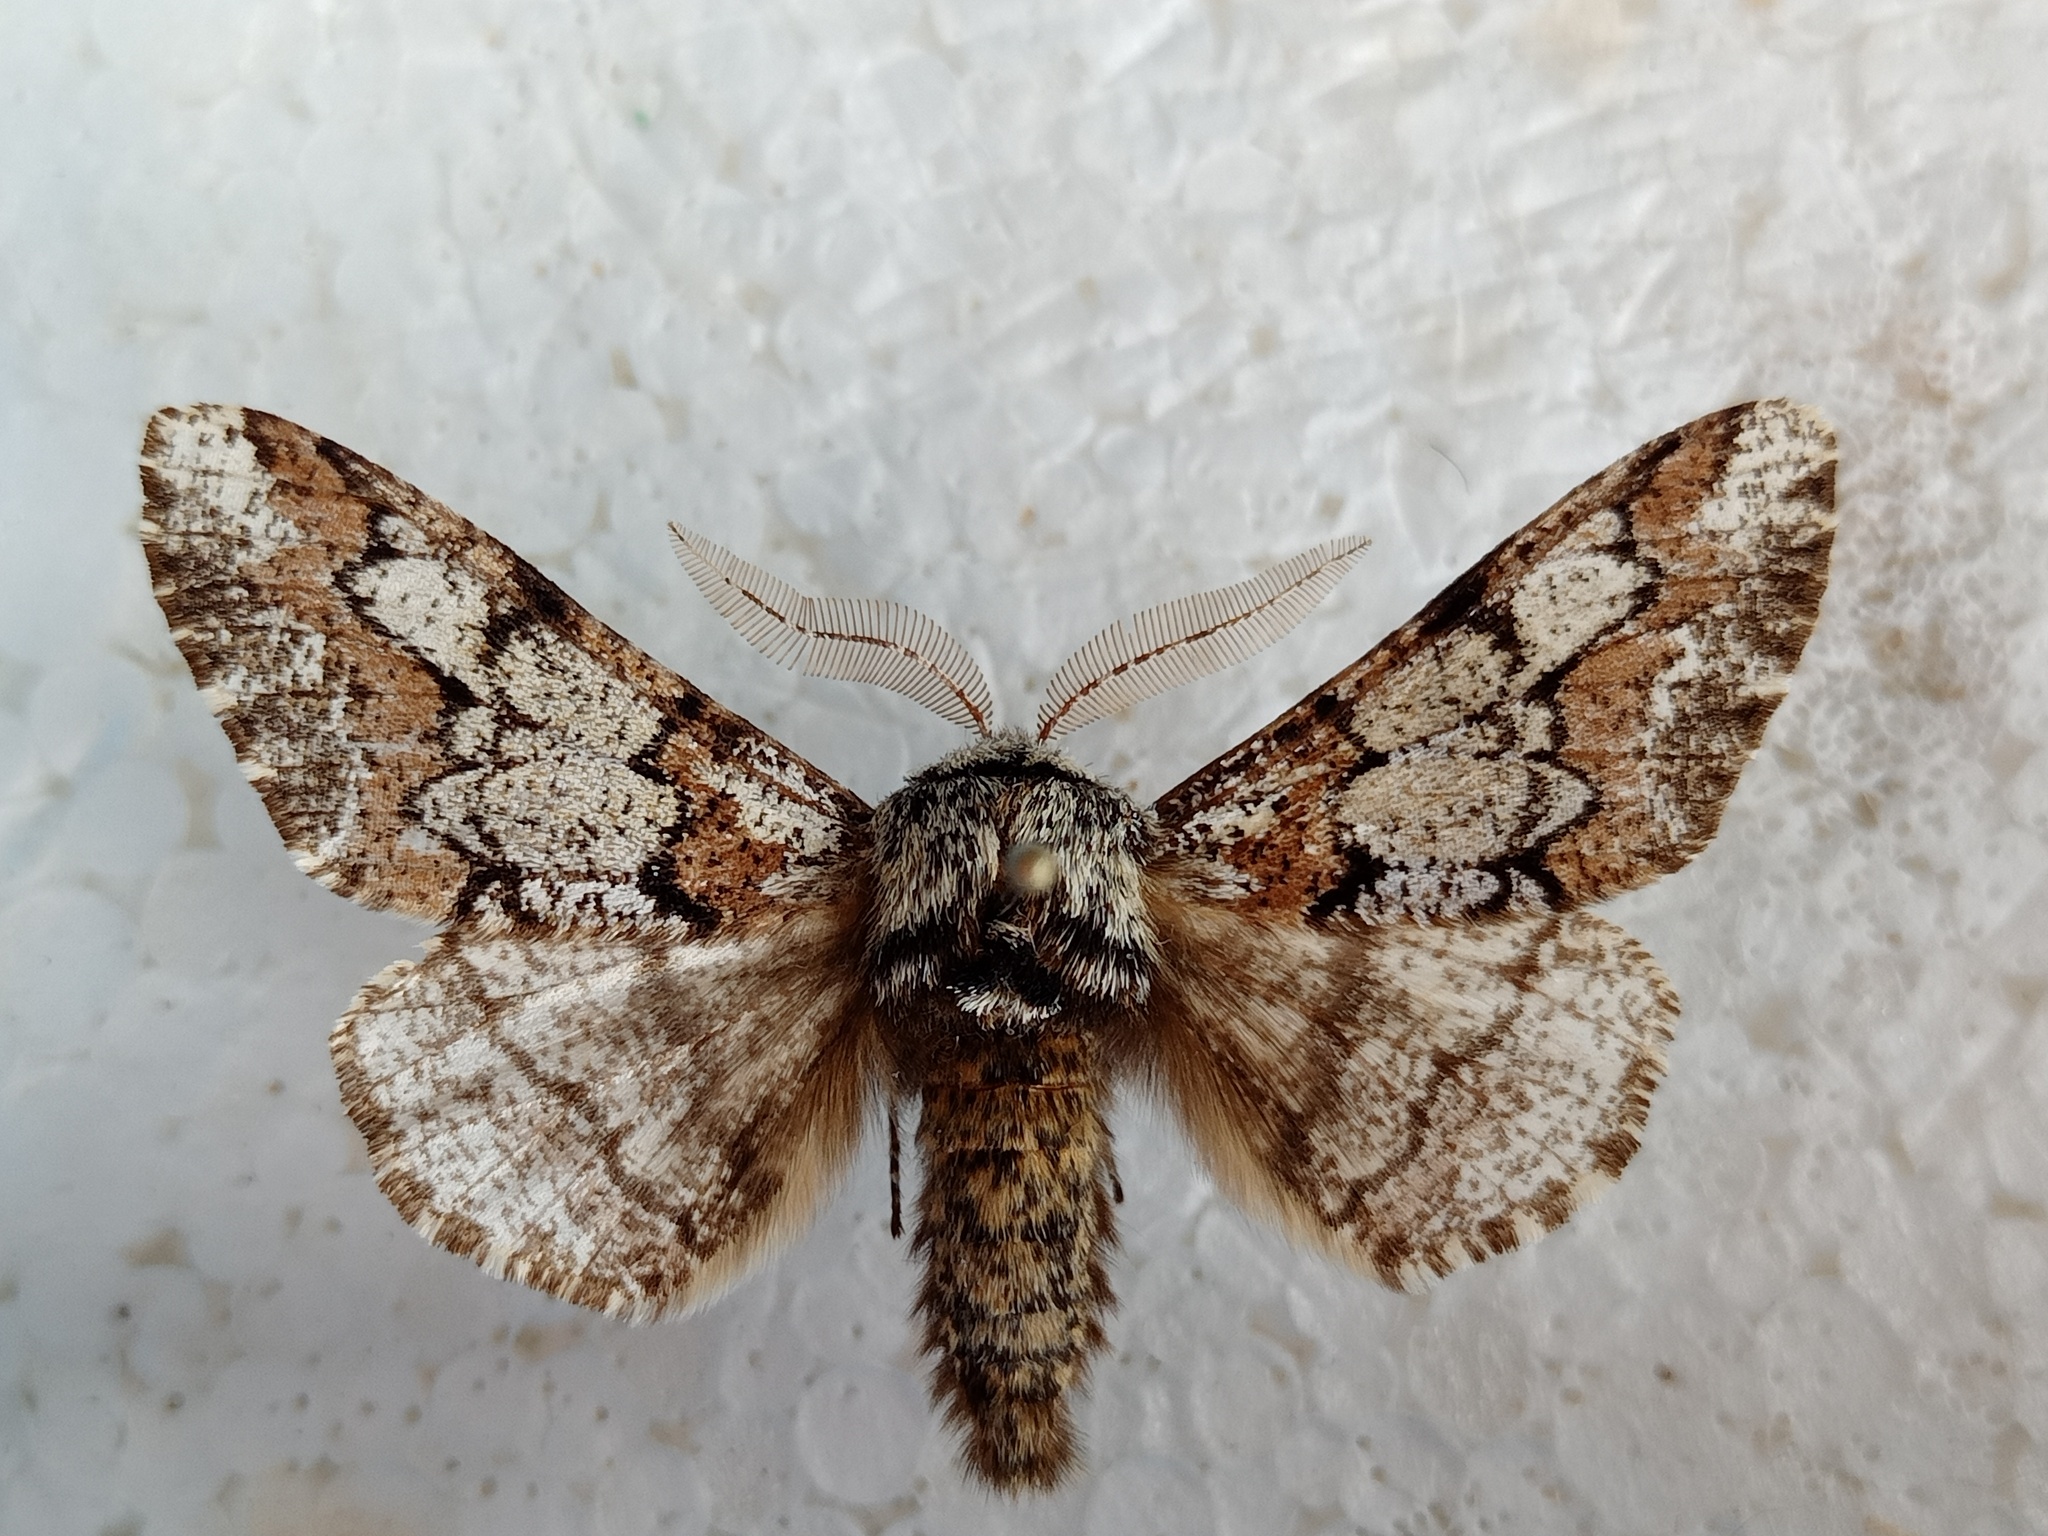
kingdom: Animalia
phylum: Arthropoda
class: Insecta
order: Lepidoptera
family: Geometridae
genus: Biston
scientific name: Biston strataria
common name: Oak beauty
